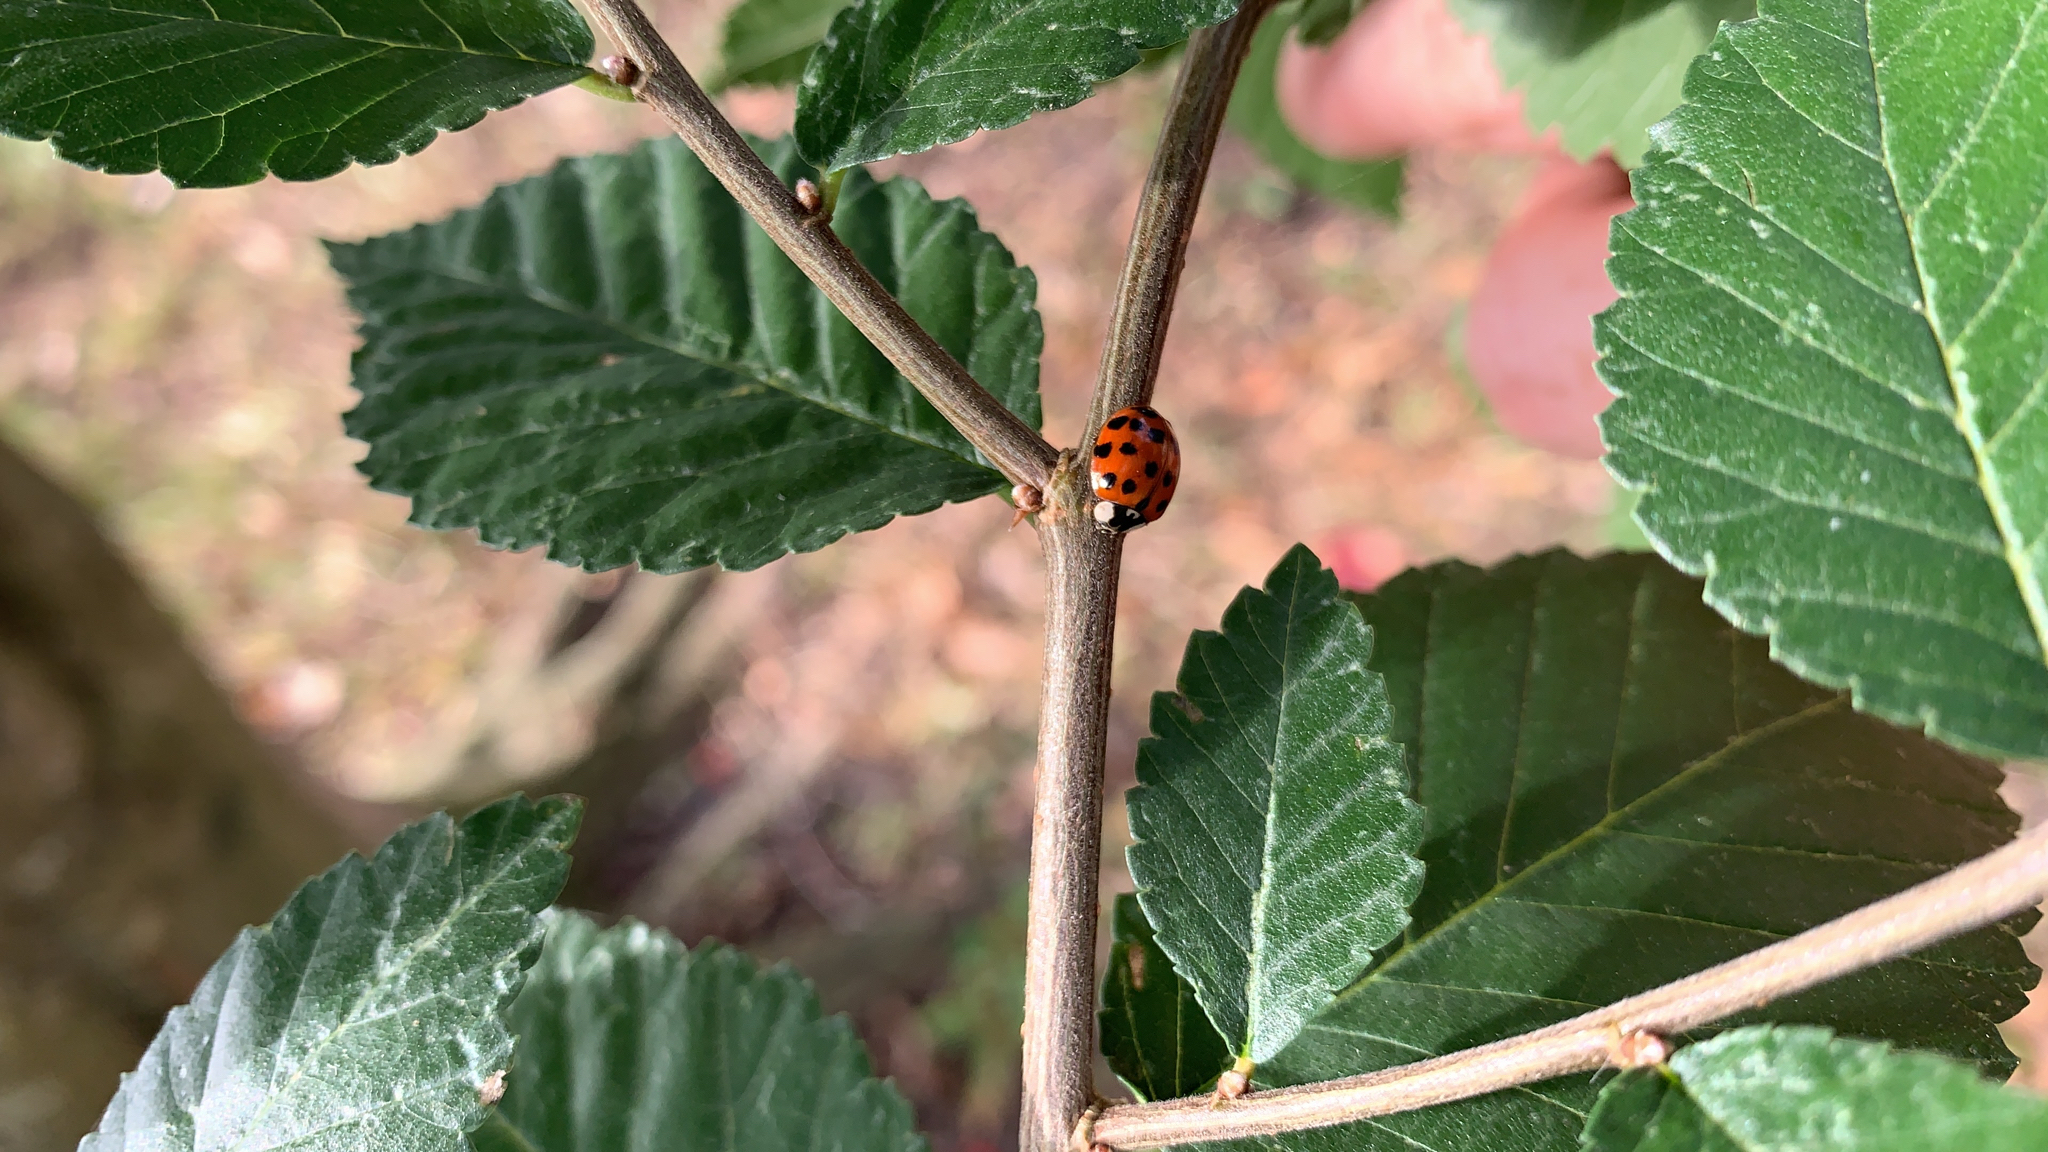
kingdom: Animalia
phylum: Arthropoda
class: Insecta
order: Coleoptera
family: Coccinellidae
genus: Harmonia
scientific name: Harmonia axyridis
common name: Harlequin ladybird
